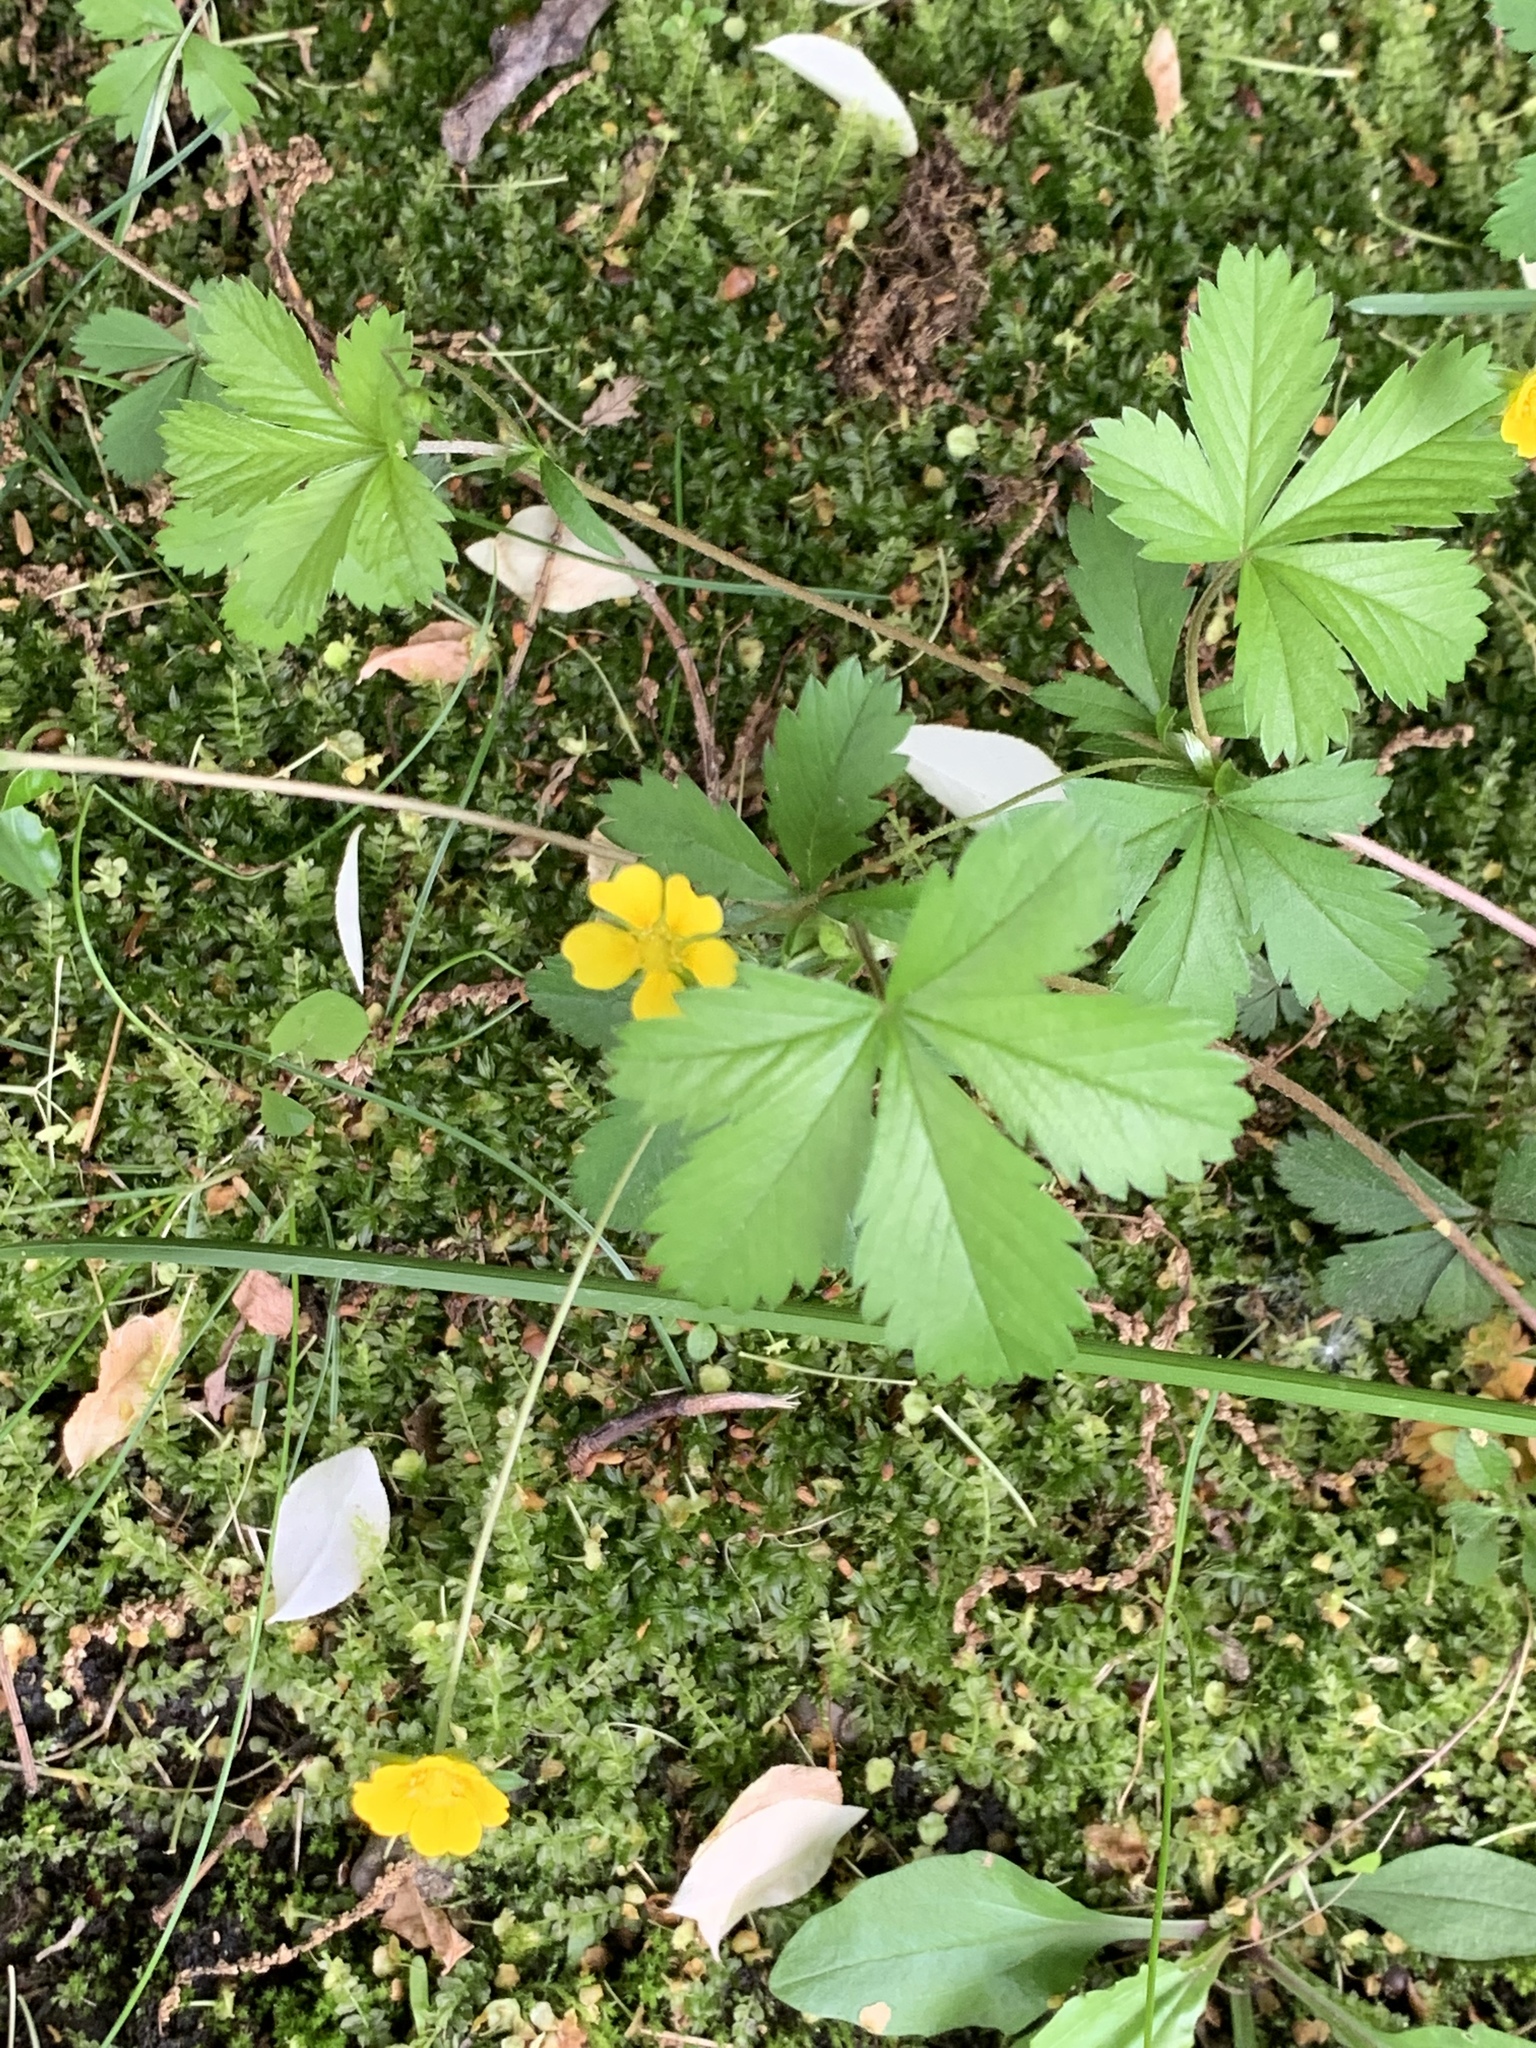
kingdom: Plantae
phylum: Tracheophyta
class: Magnoliopsida
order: Rosales
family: Rosaceae
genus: Potentilla
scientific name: Potentilla canadensis
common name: Canada cinquefoil
